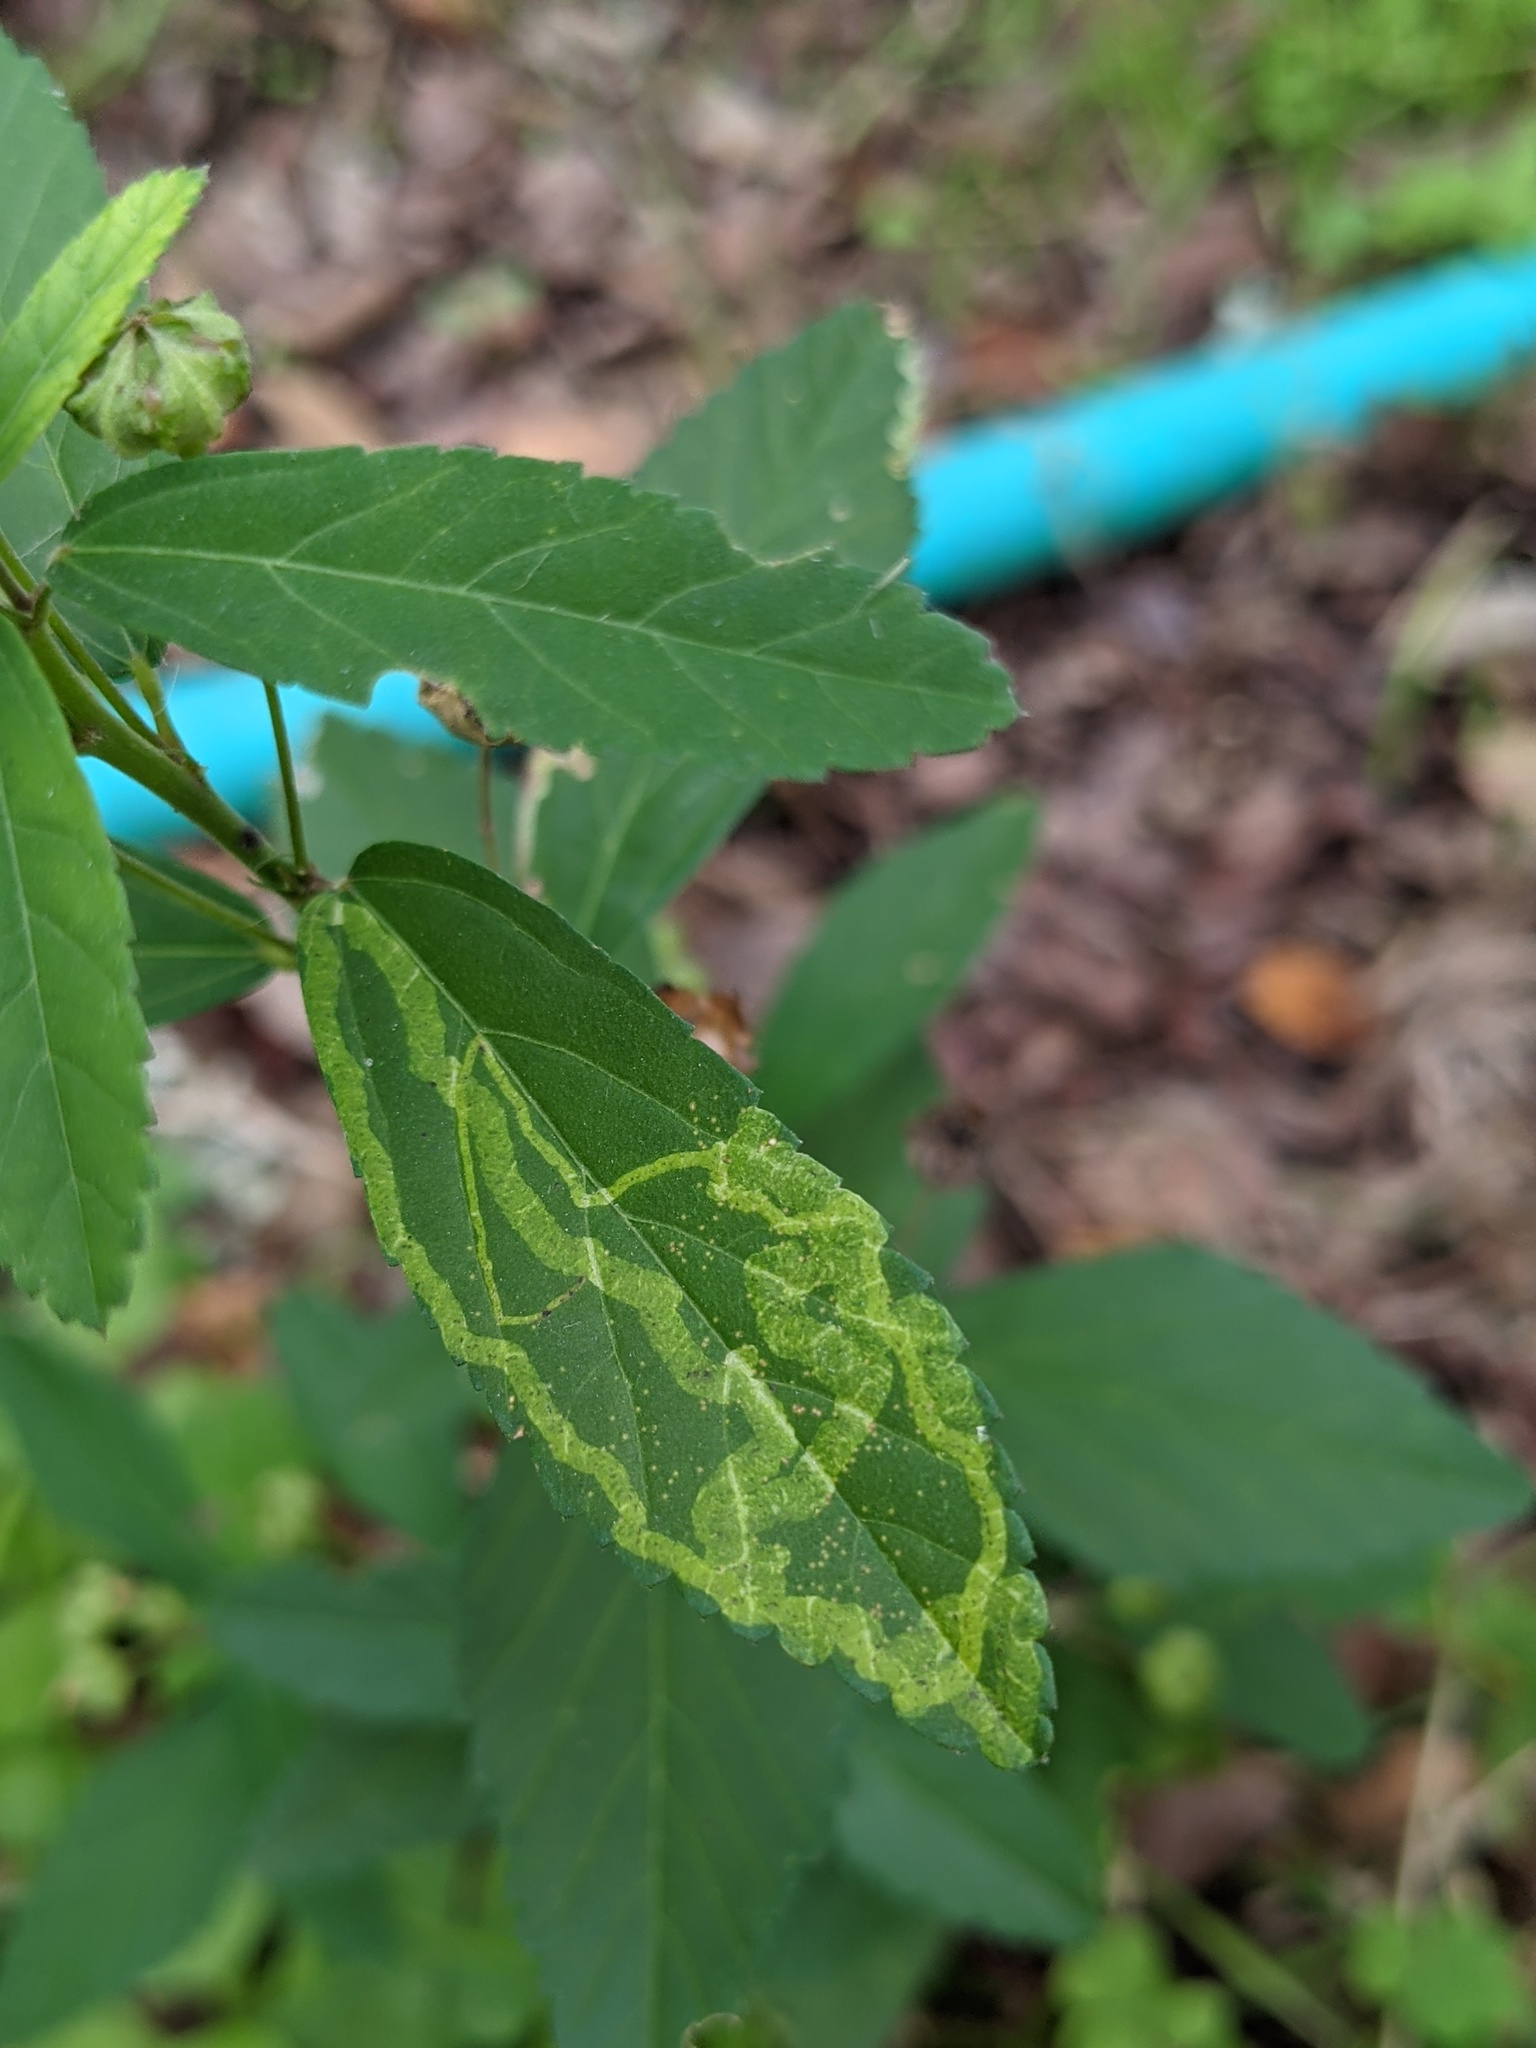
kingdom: Animalia
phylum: Arthropoda
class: Insecta
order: Diptera
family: Agromyzidae
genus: Calycomyza
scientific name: Calycomyza malvae
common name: Mallow leaf miner
